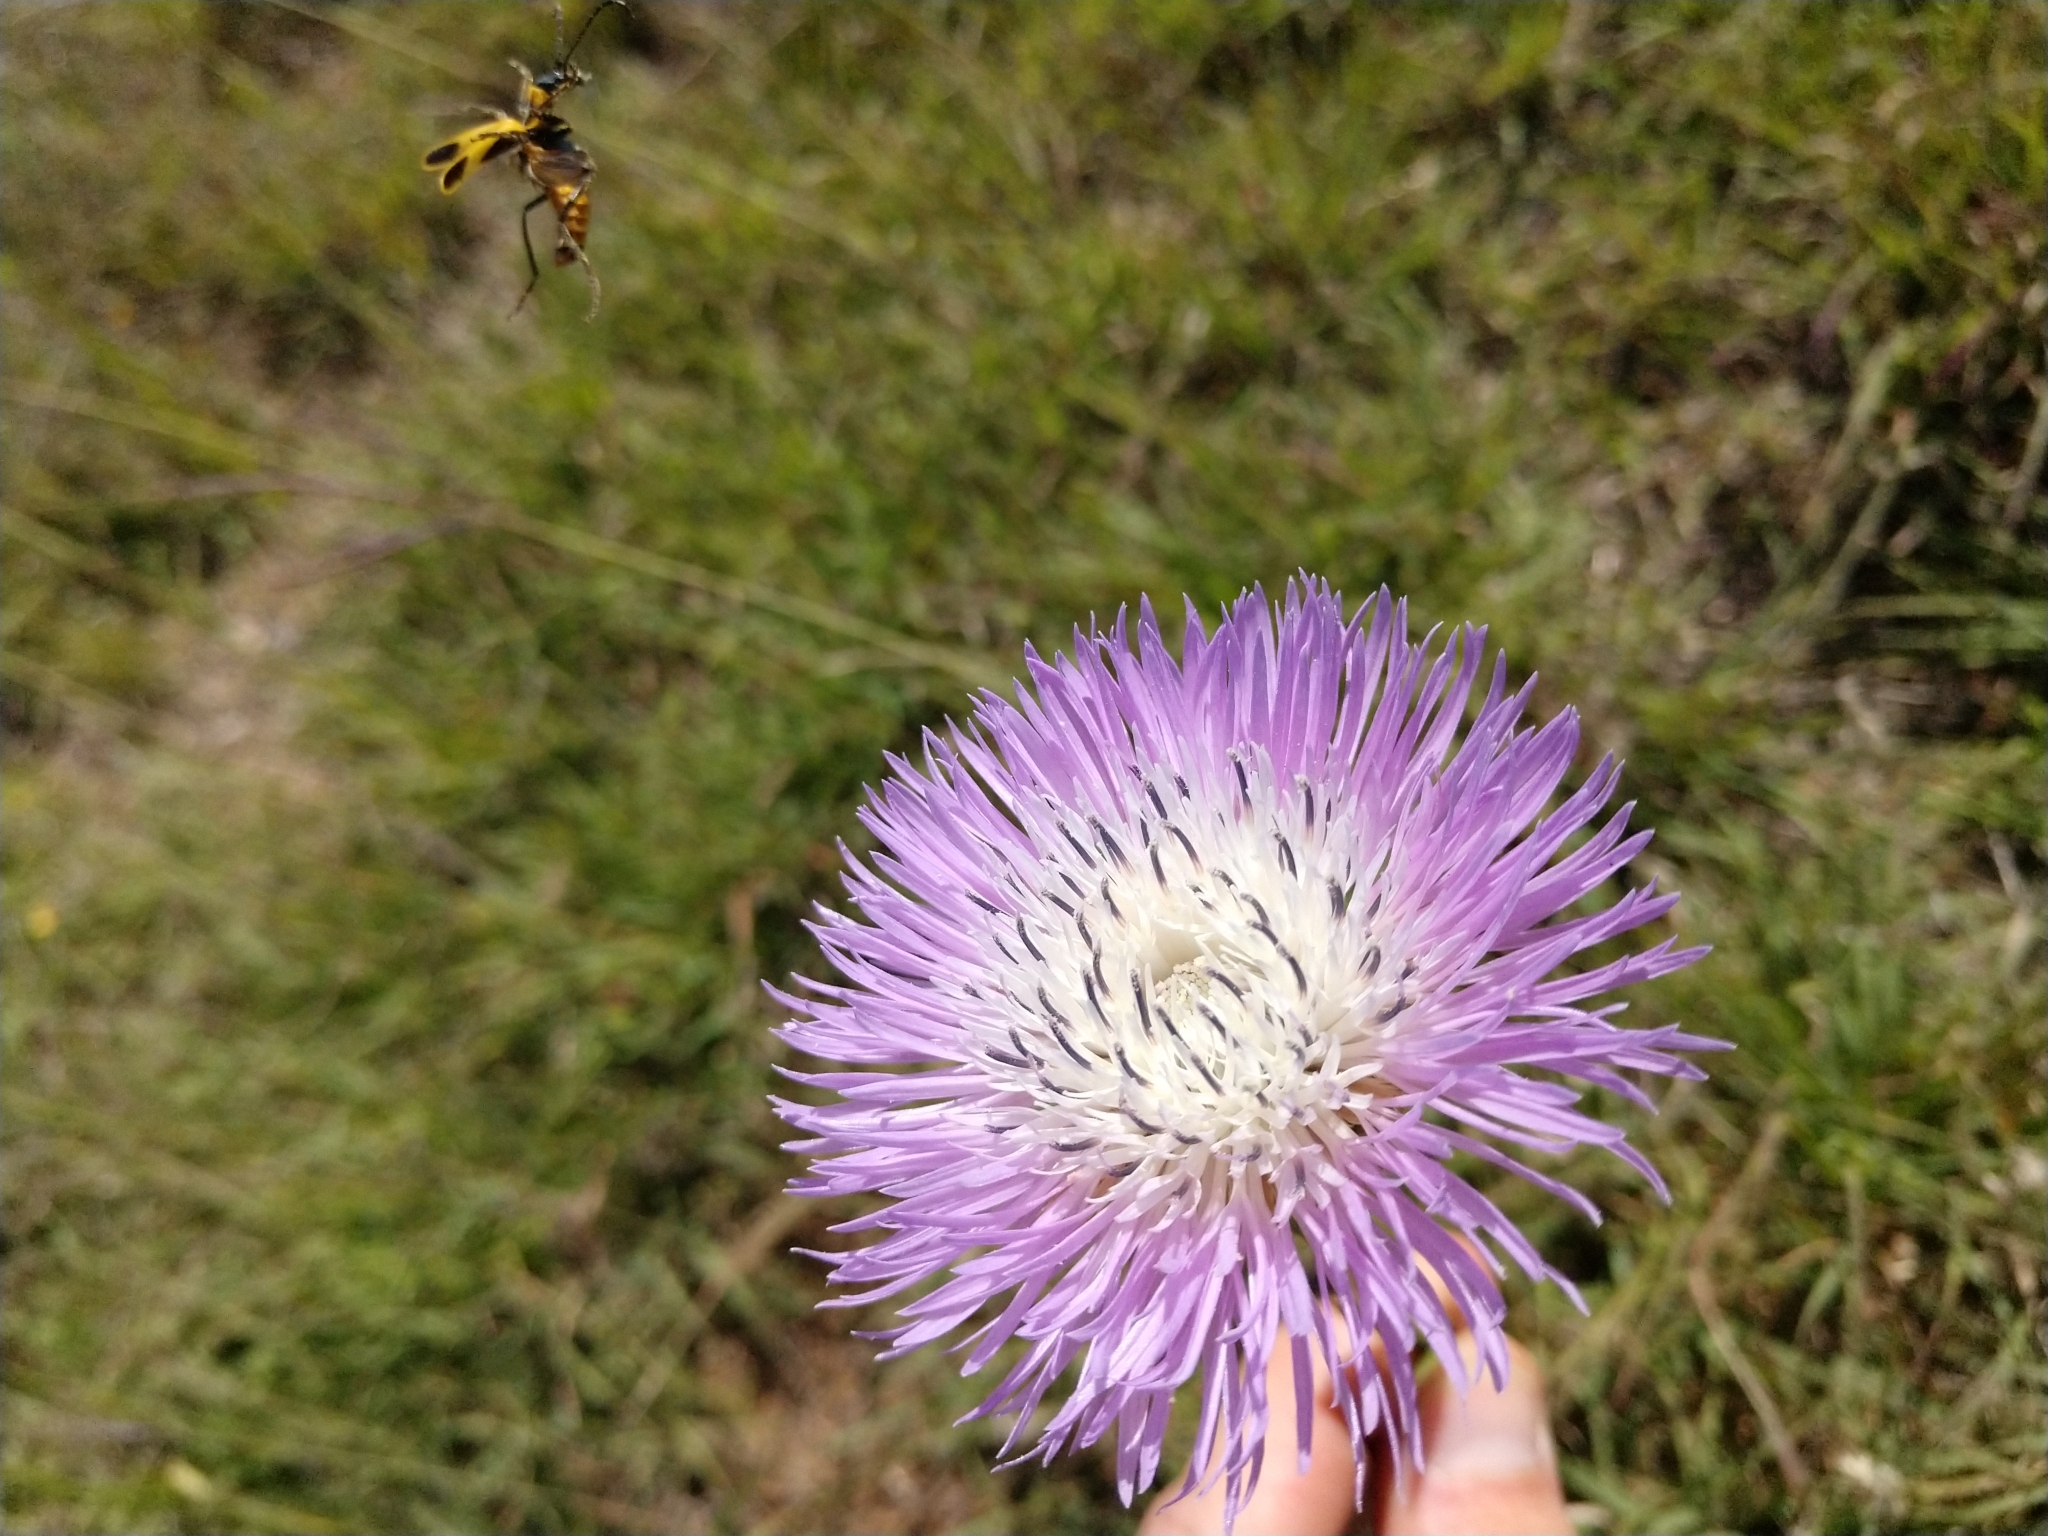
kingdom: Plantae
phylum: Tracheophyta
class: Magnoliopsida
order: Asterales
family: Asteraceae
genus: Plectocephalus
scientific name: Plectocephalus americanus
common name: American basket-flower
